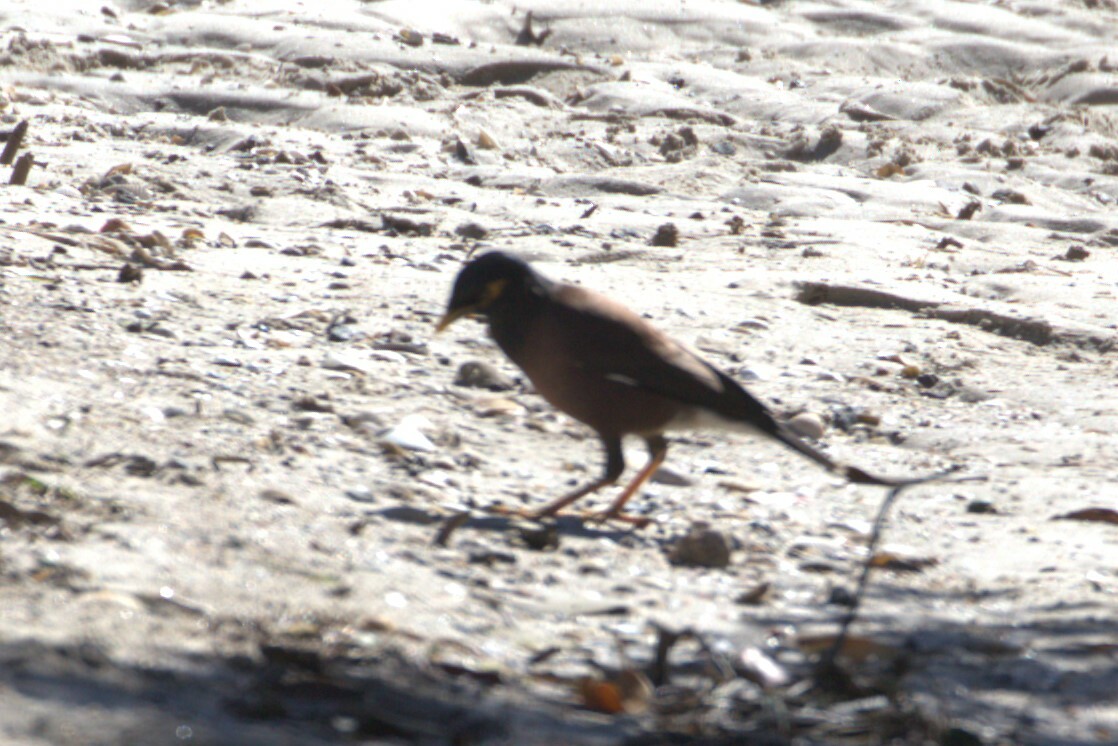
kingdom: Animalia
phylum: Chordata
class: Aves
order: Columbiformes
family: Columbidae
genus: Ocyphaps
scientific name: Ocyphaps lophotes
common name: Crested pigeon
